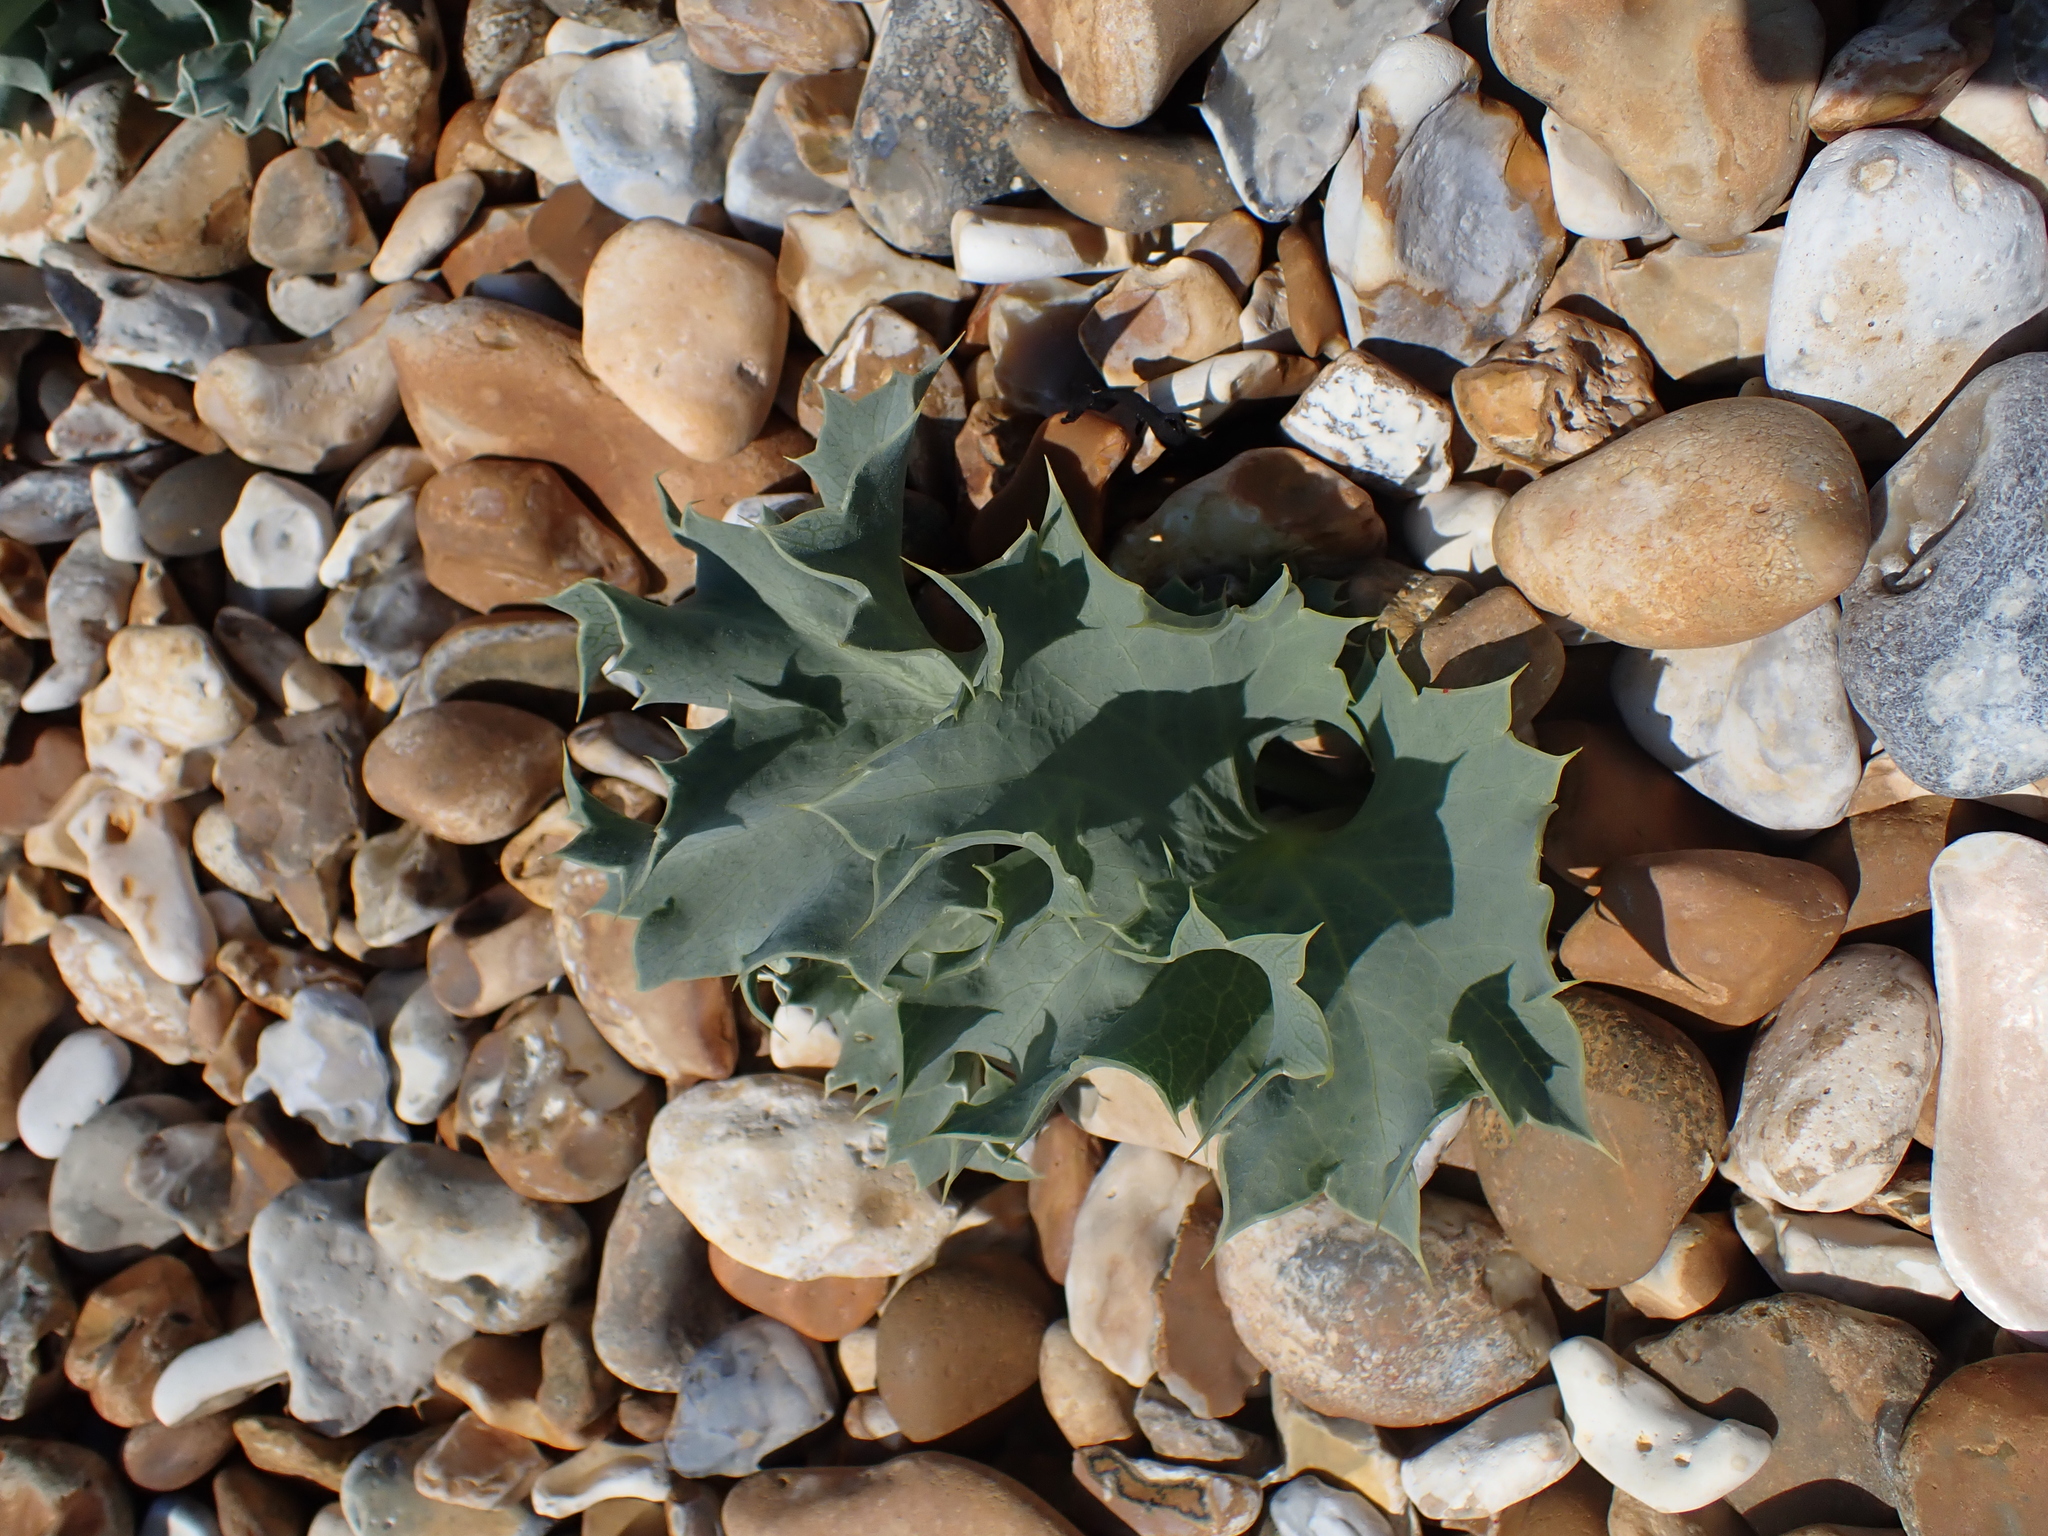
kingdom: Plantae
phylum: Tracheophyta
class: Magnoliopsida
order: Apiales
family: Apiaceae
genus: Eryngium
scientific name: Eryngium maritimum
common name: Sea-holly
